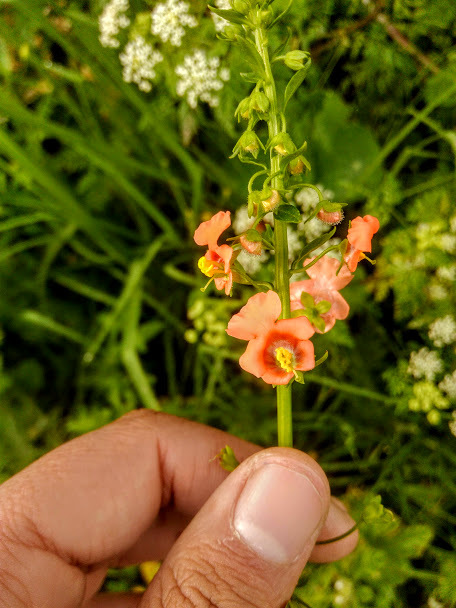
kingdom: Plantae
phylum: Tracheophyta
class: Magnoliopsida
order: Lamiales
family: Scrophulariaceae
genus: Alonsoa
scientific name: Alonsoa meridionalis
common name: Maskflower
